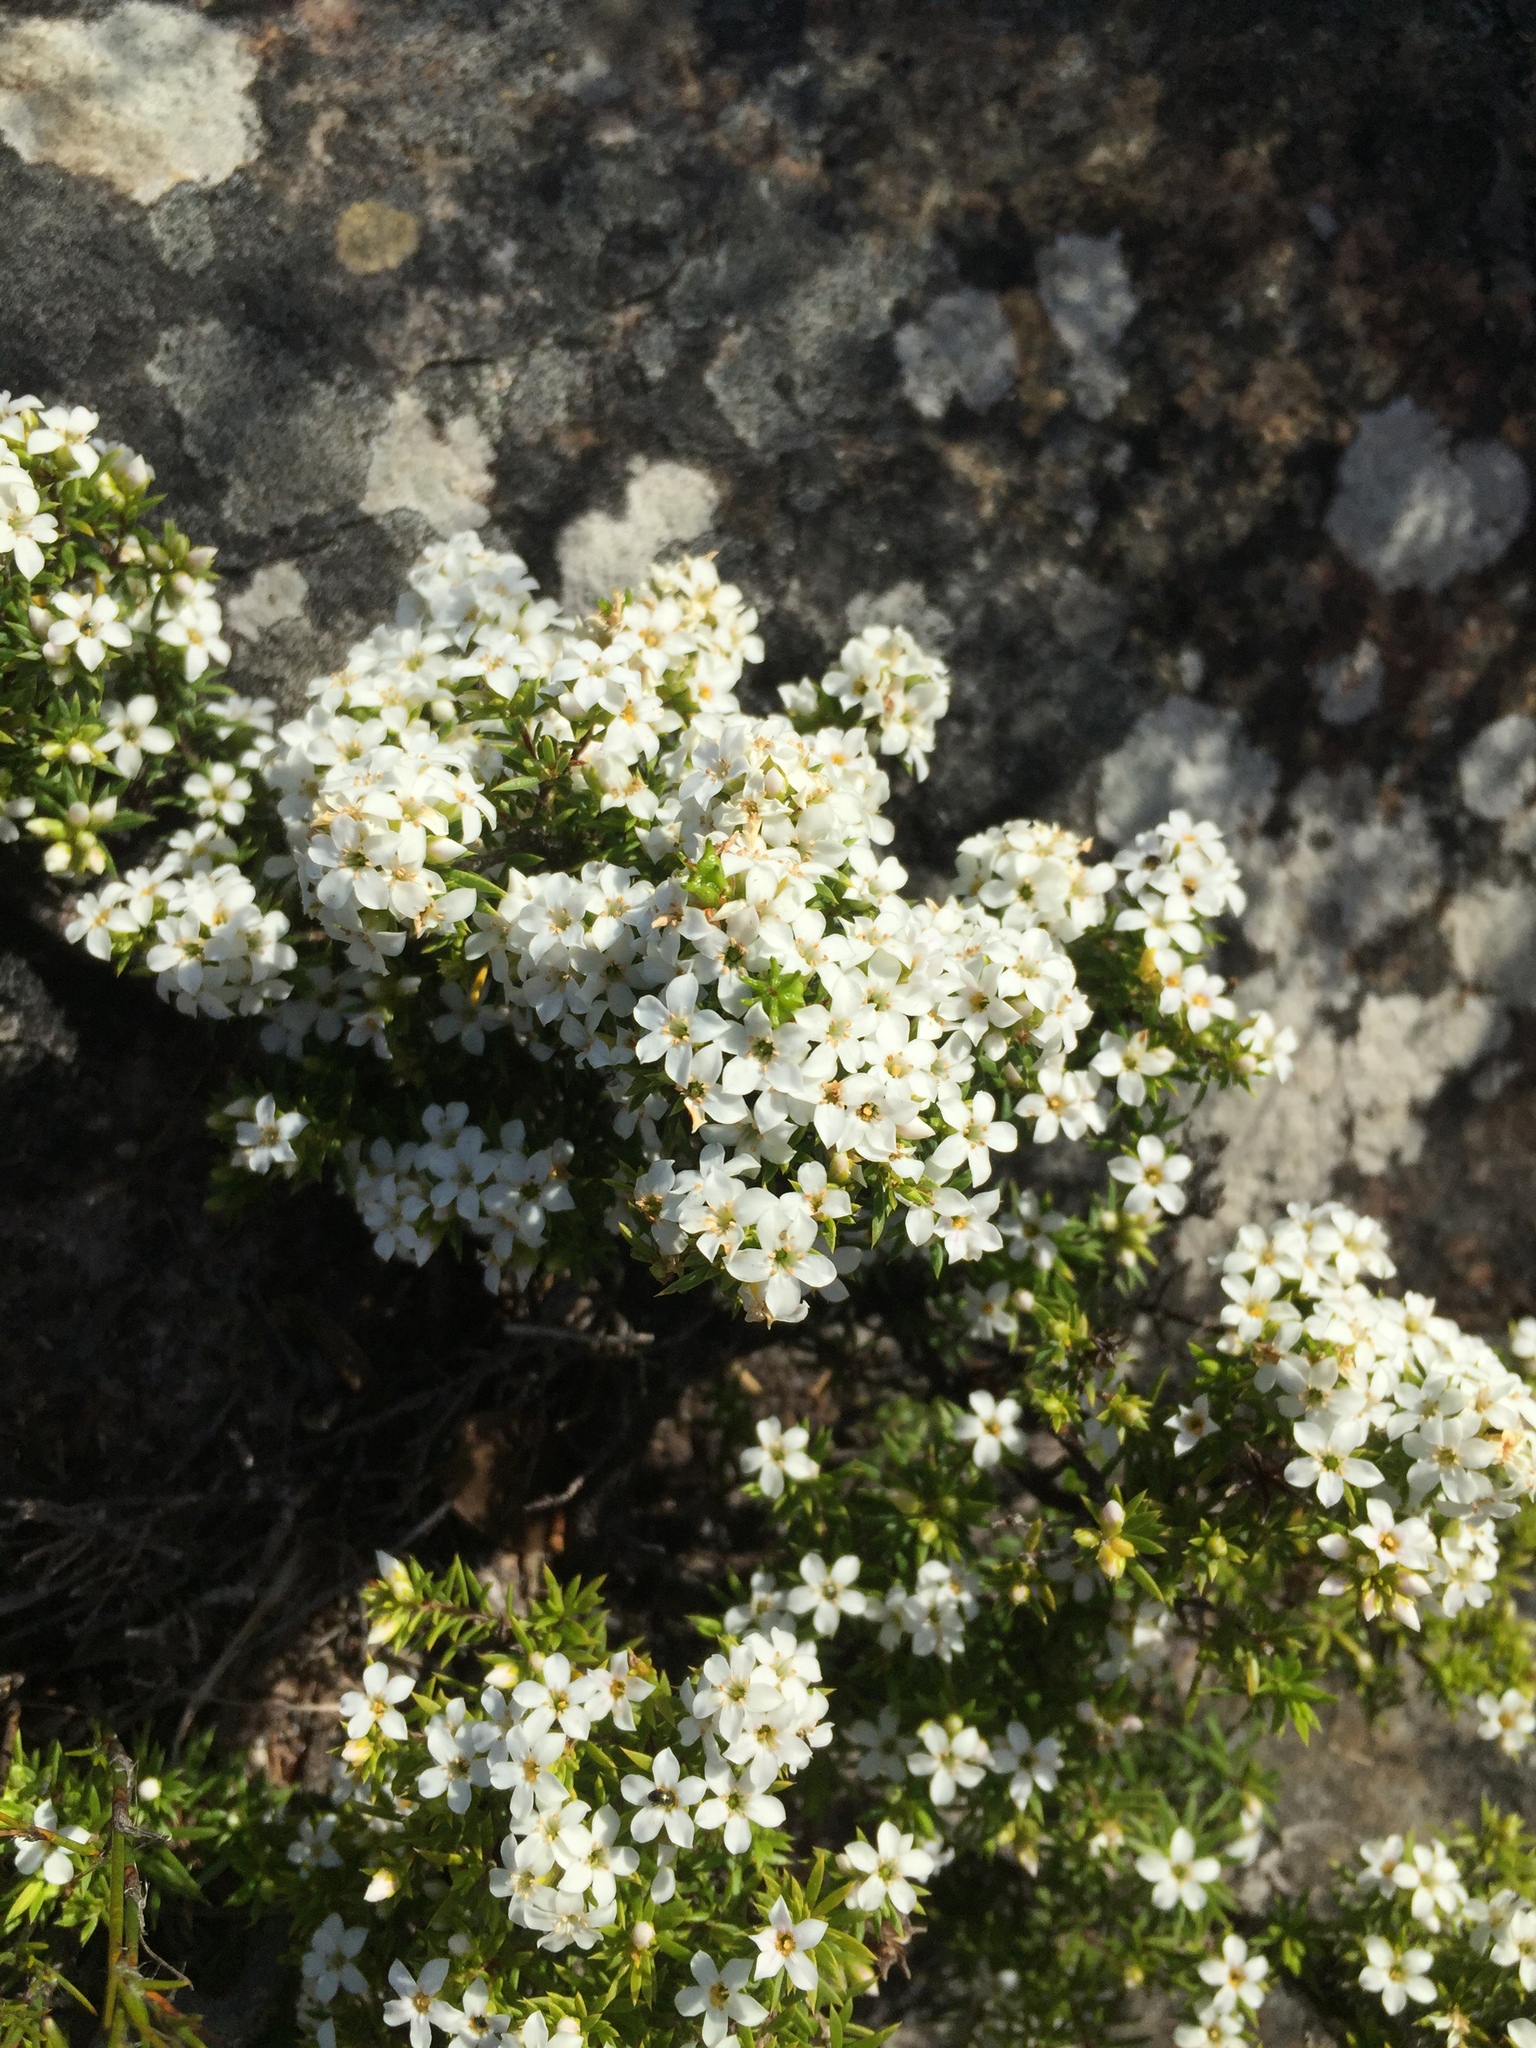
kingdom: Plantae
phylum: Tracheophyta
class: Magnoliopsida
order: Sapindales
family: Rutaceae
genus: Coleonema
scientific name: Coleonema album
